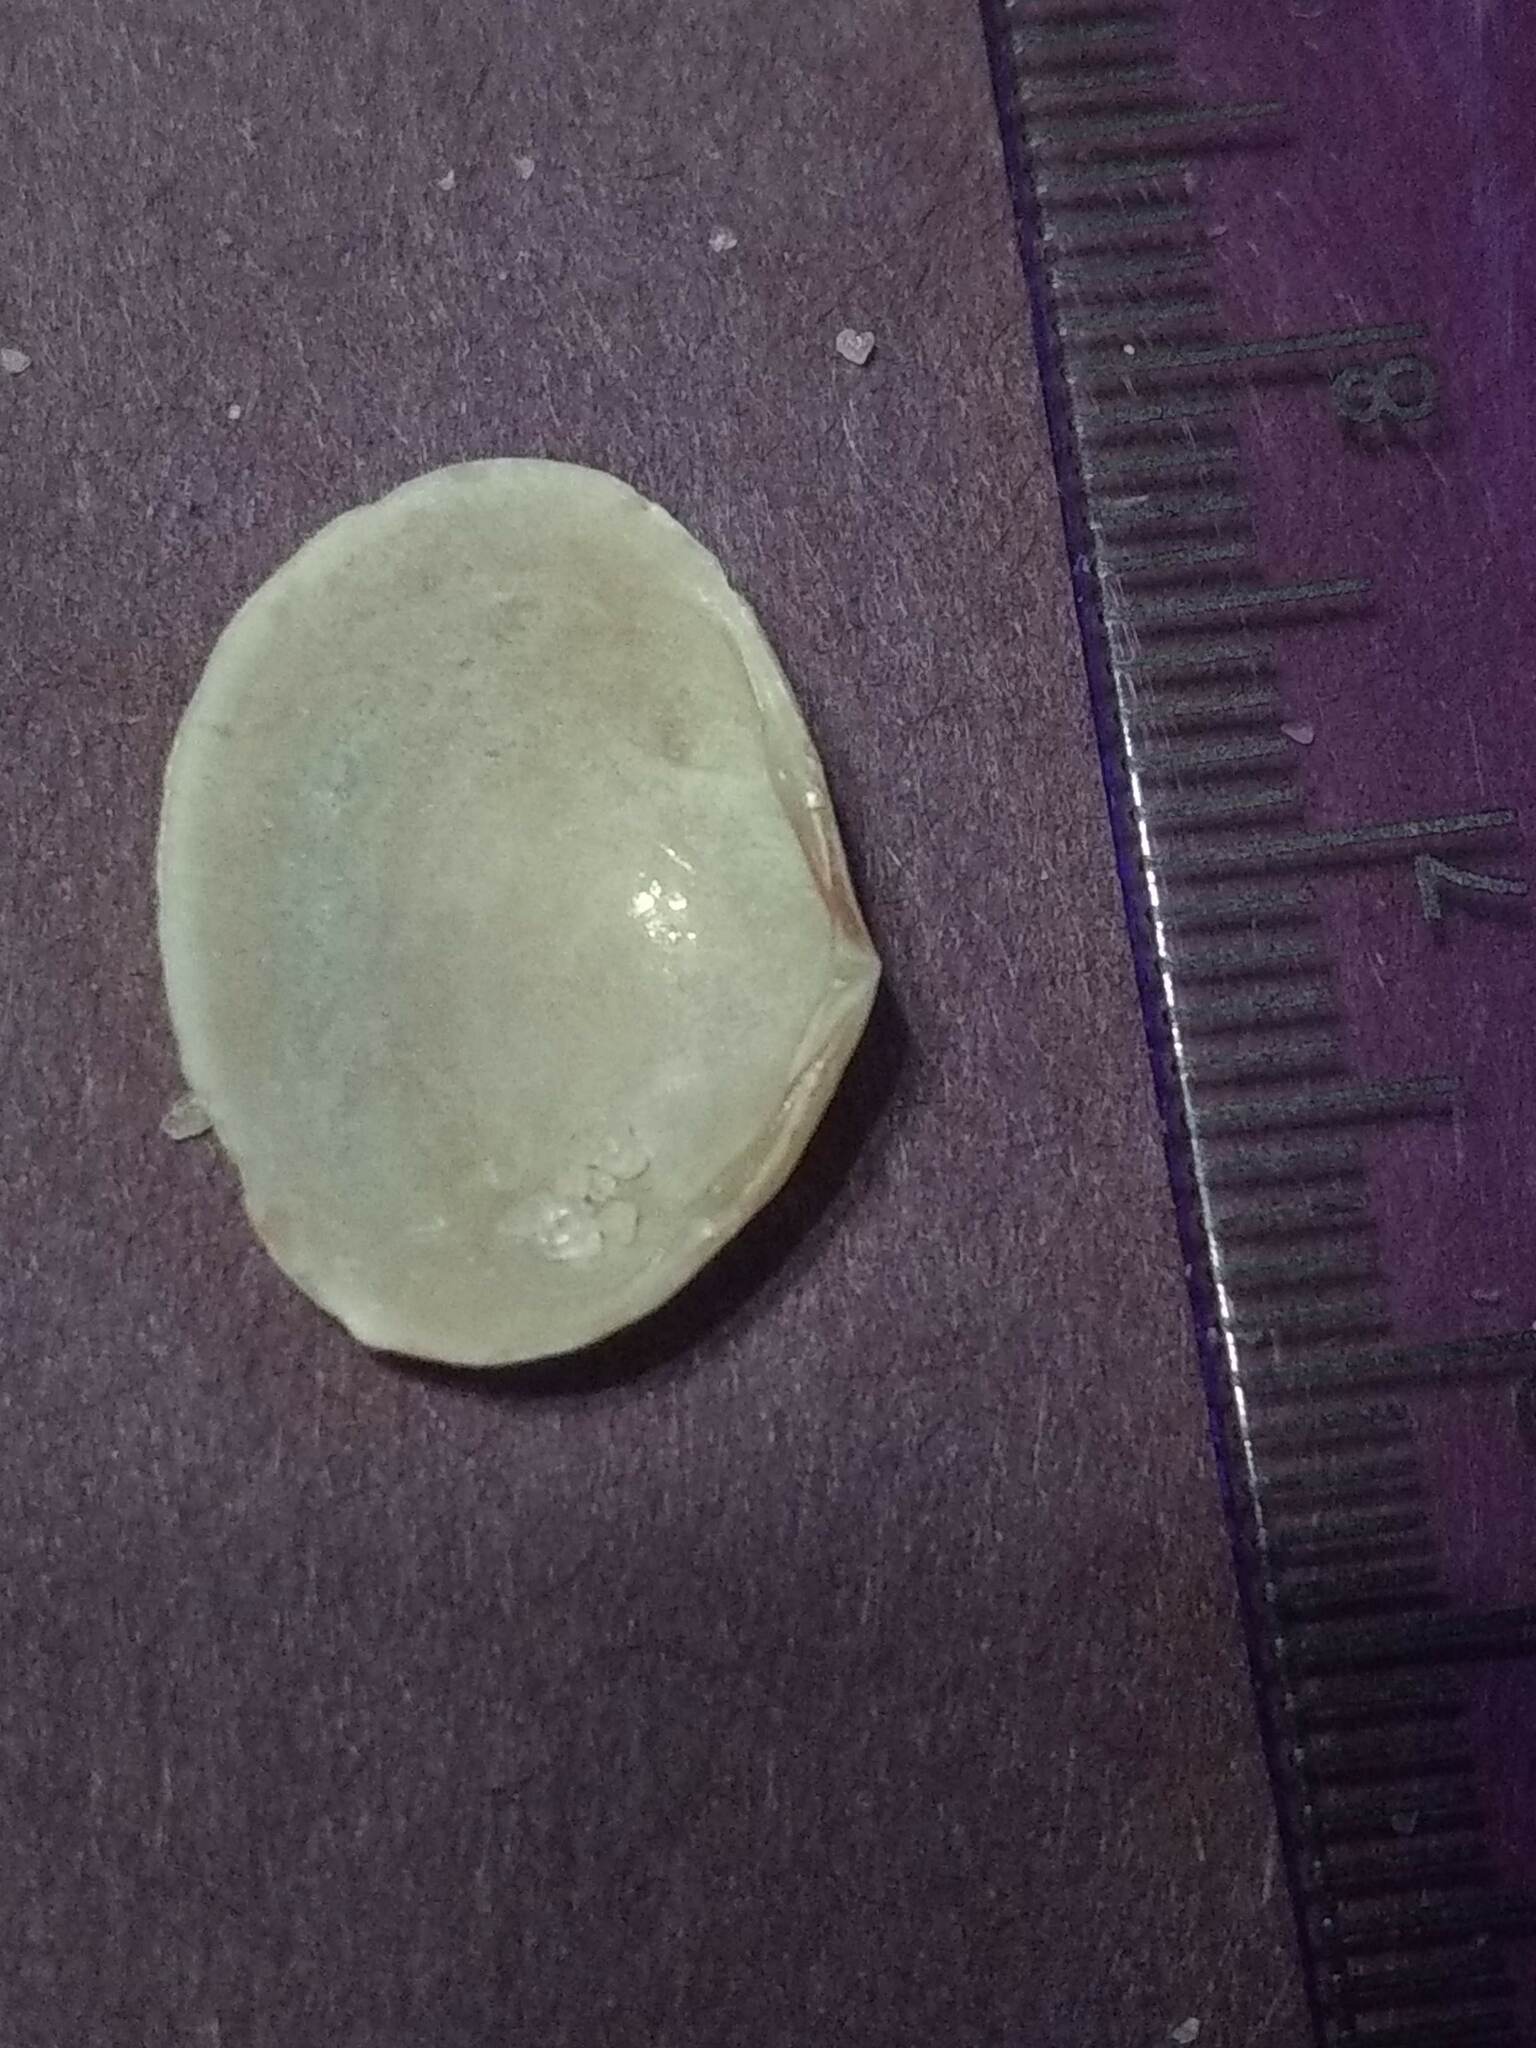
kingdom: Animalia
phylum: Mollusca
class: Bivalvia
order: Cardiida
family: Semelidae
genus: Semele
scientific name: Semele bellastriata
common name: Cancellate semele
